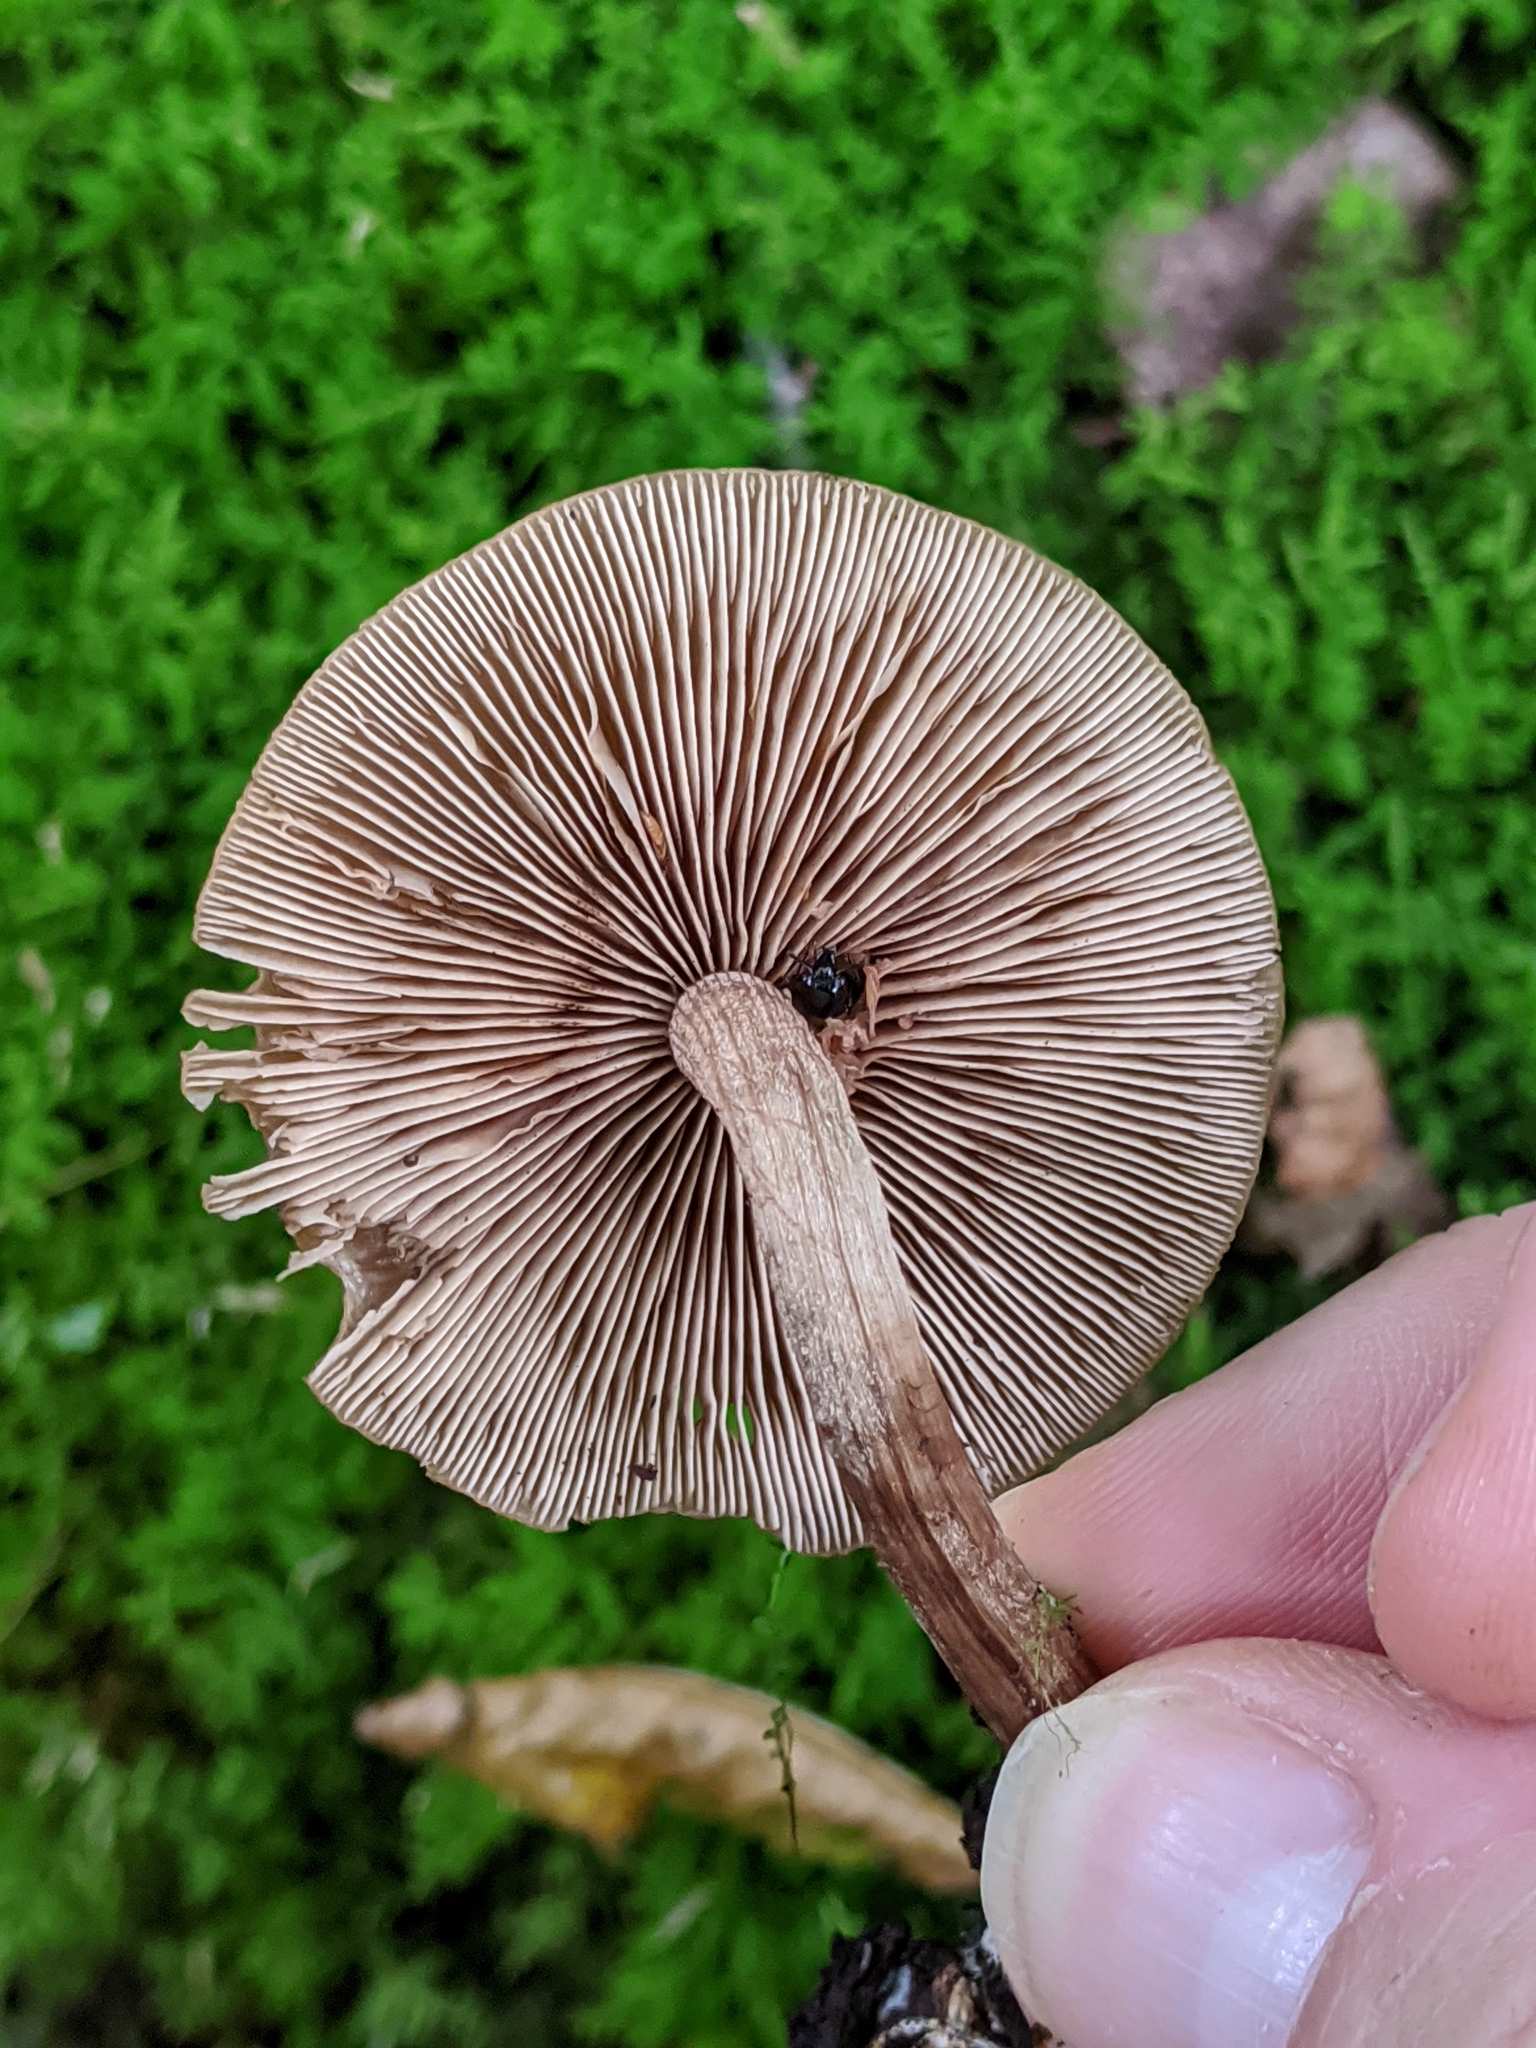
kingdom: Animalia
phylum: Arthropoda
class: Insecta
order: Coleoptera
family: Staphylinidae
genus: Oxyporus
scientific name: Oxyporus stygicus
